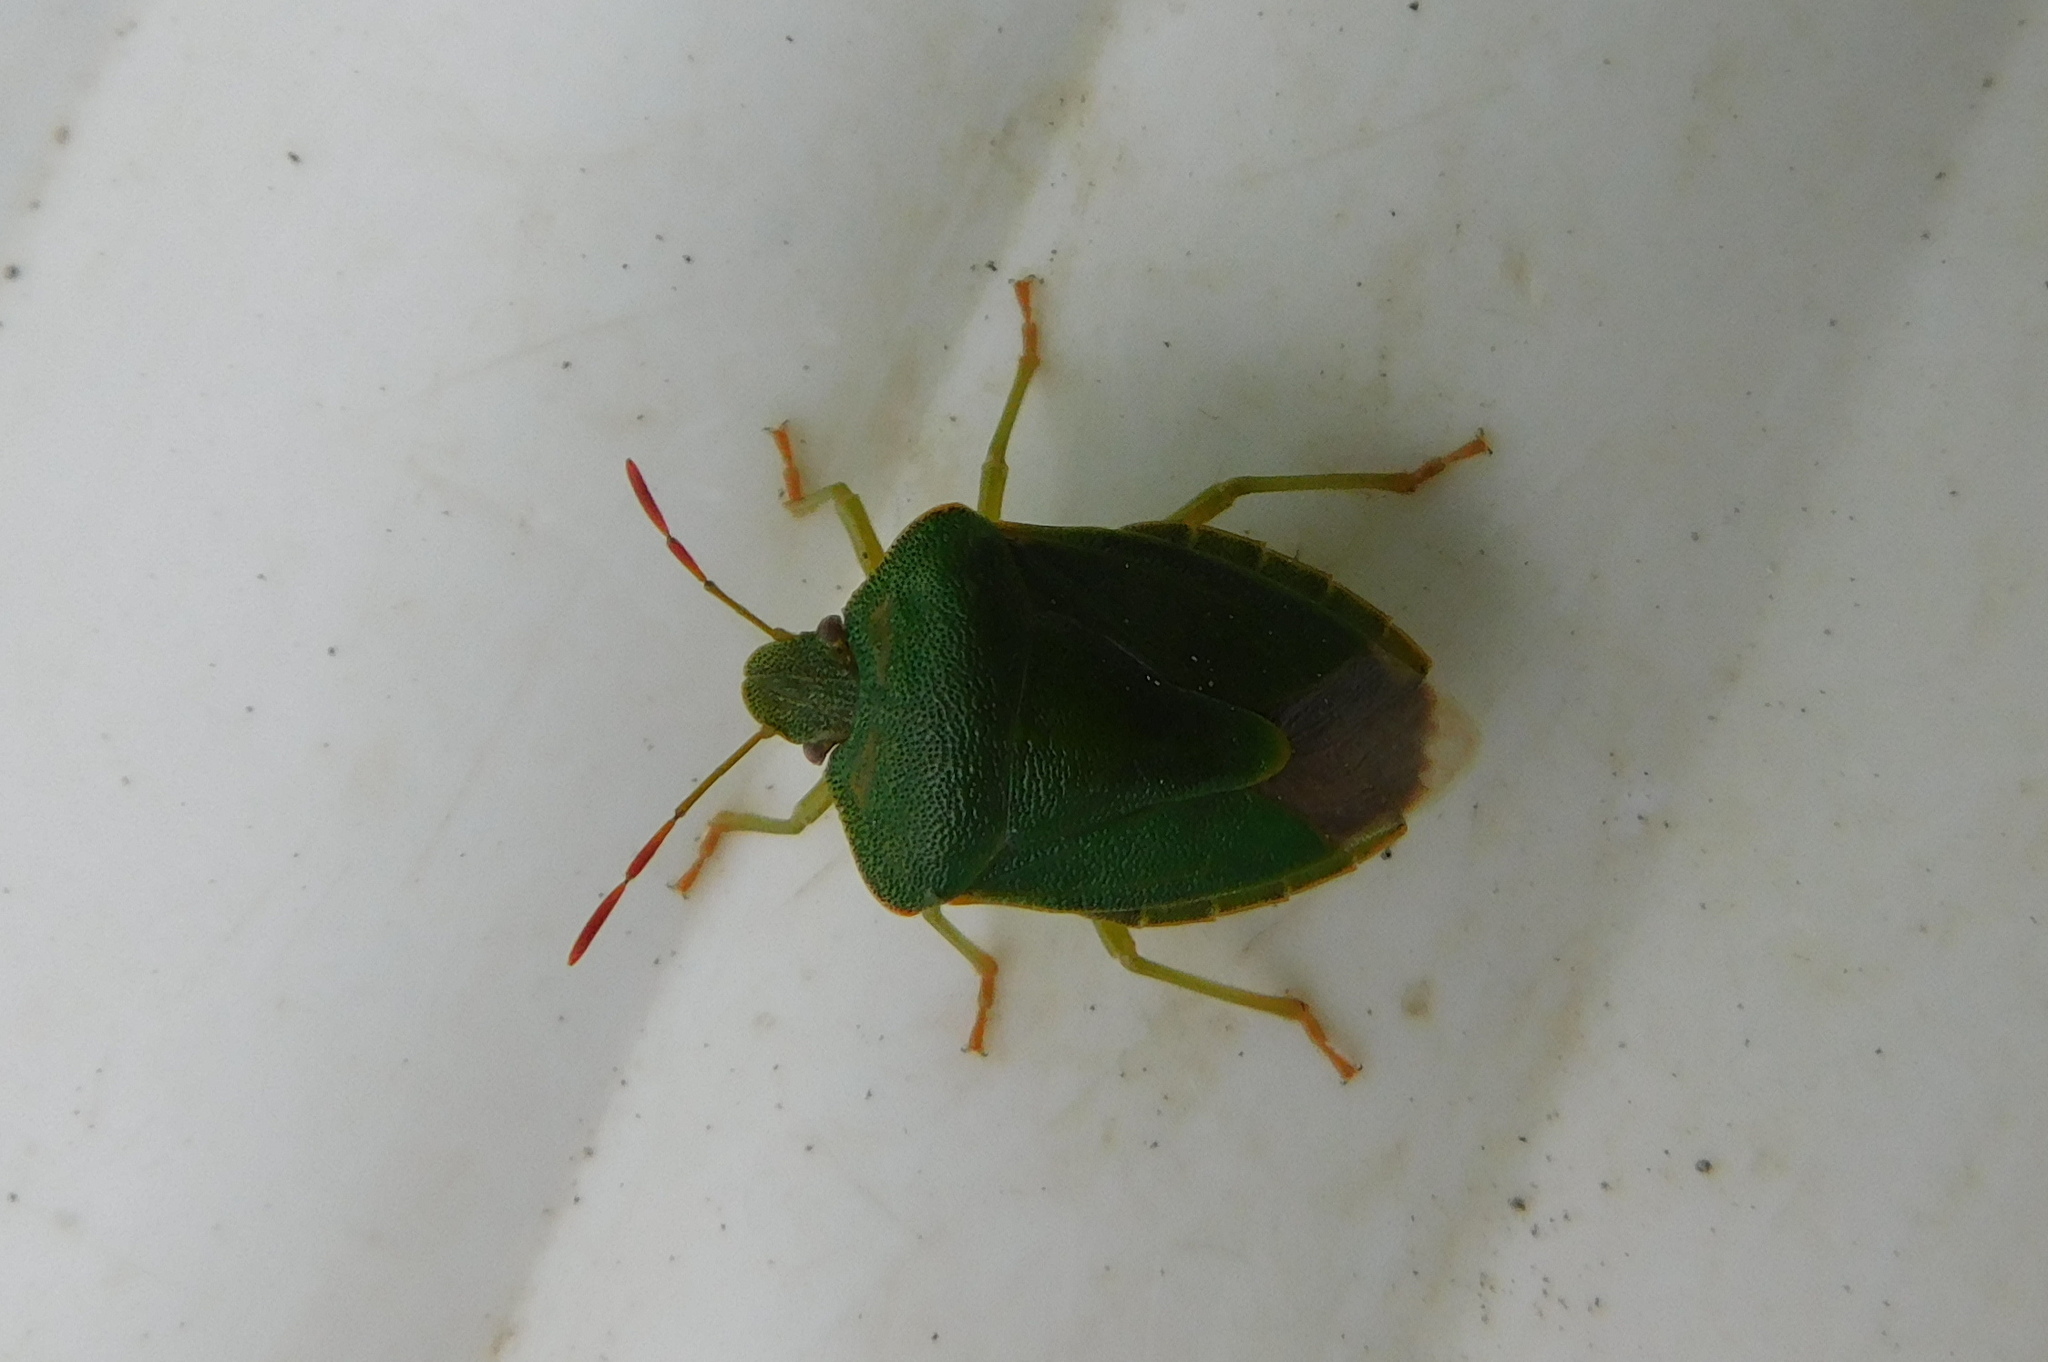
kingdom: Animalia
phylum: Arthropoda
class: Insecta
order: Hemiptera
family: Pentatomidae
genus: Palomena
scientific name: Palomena prasina
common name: Green shieldbug
